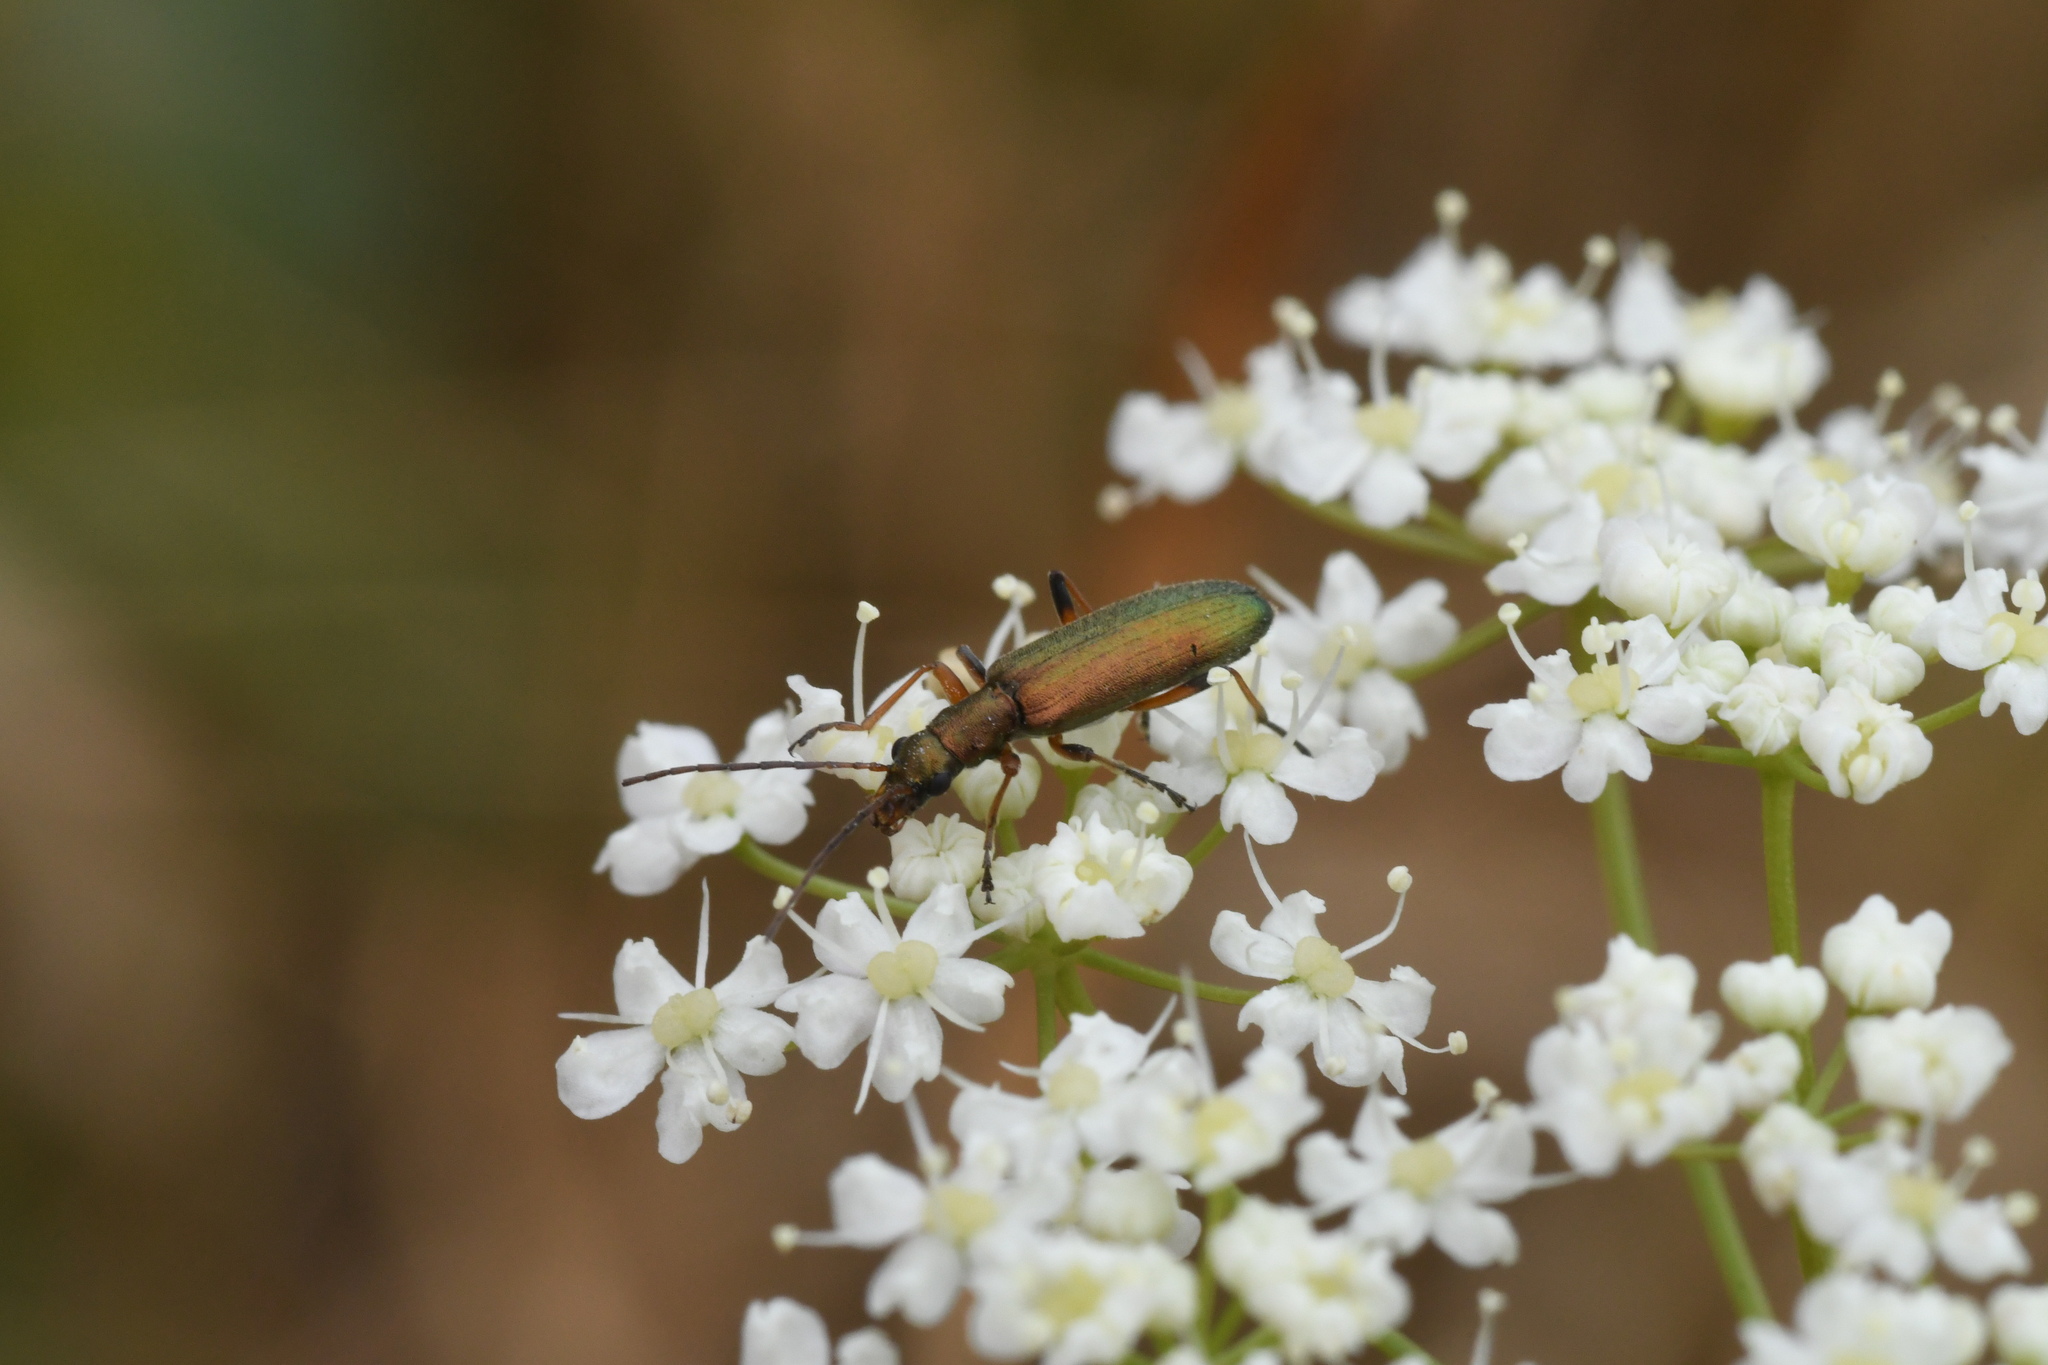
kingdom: Animalia
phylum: Arthropoda
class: Insecta
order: Coleoptera
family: Oedemeridae
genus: Chrysanthia
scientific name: Chrysanthia geniculata
